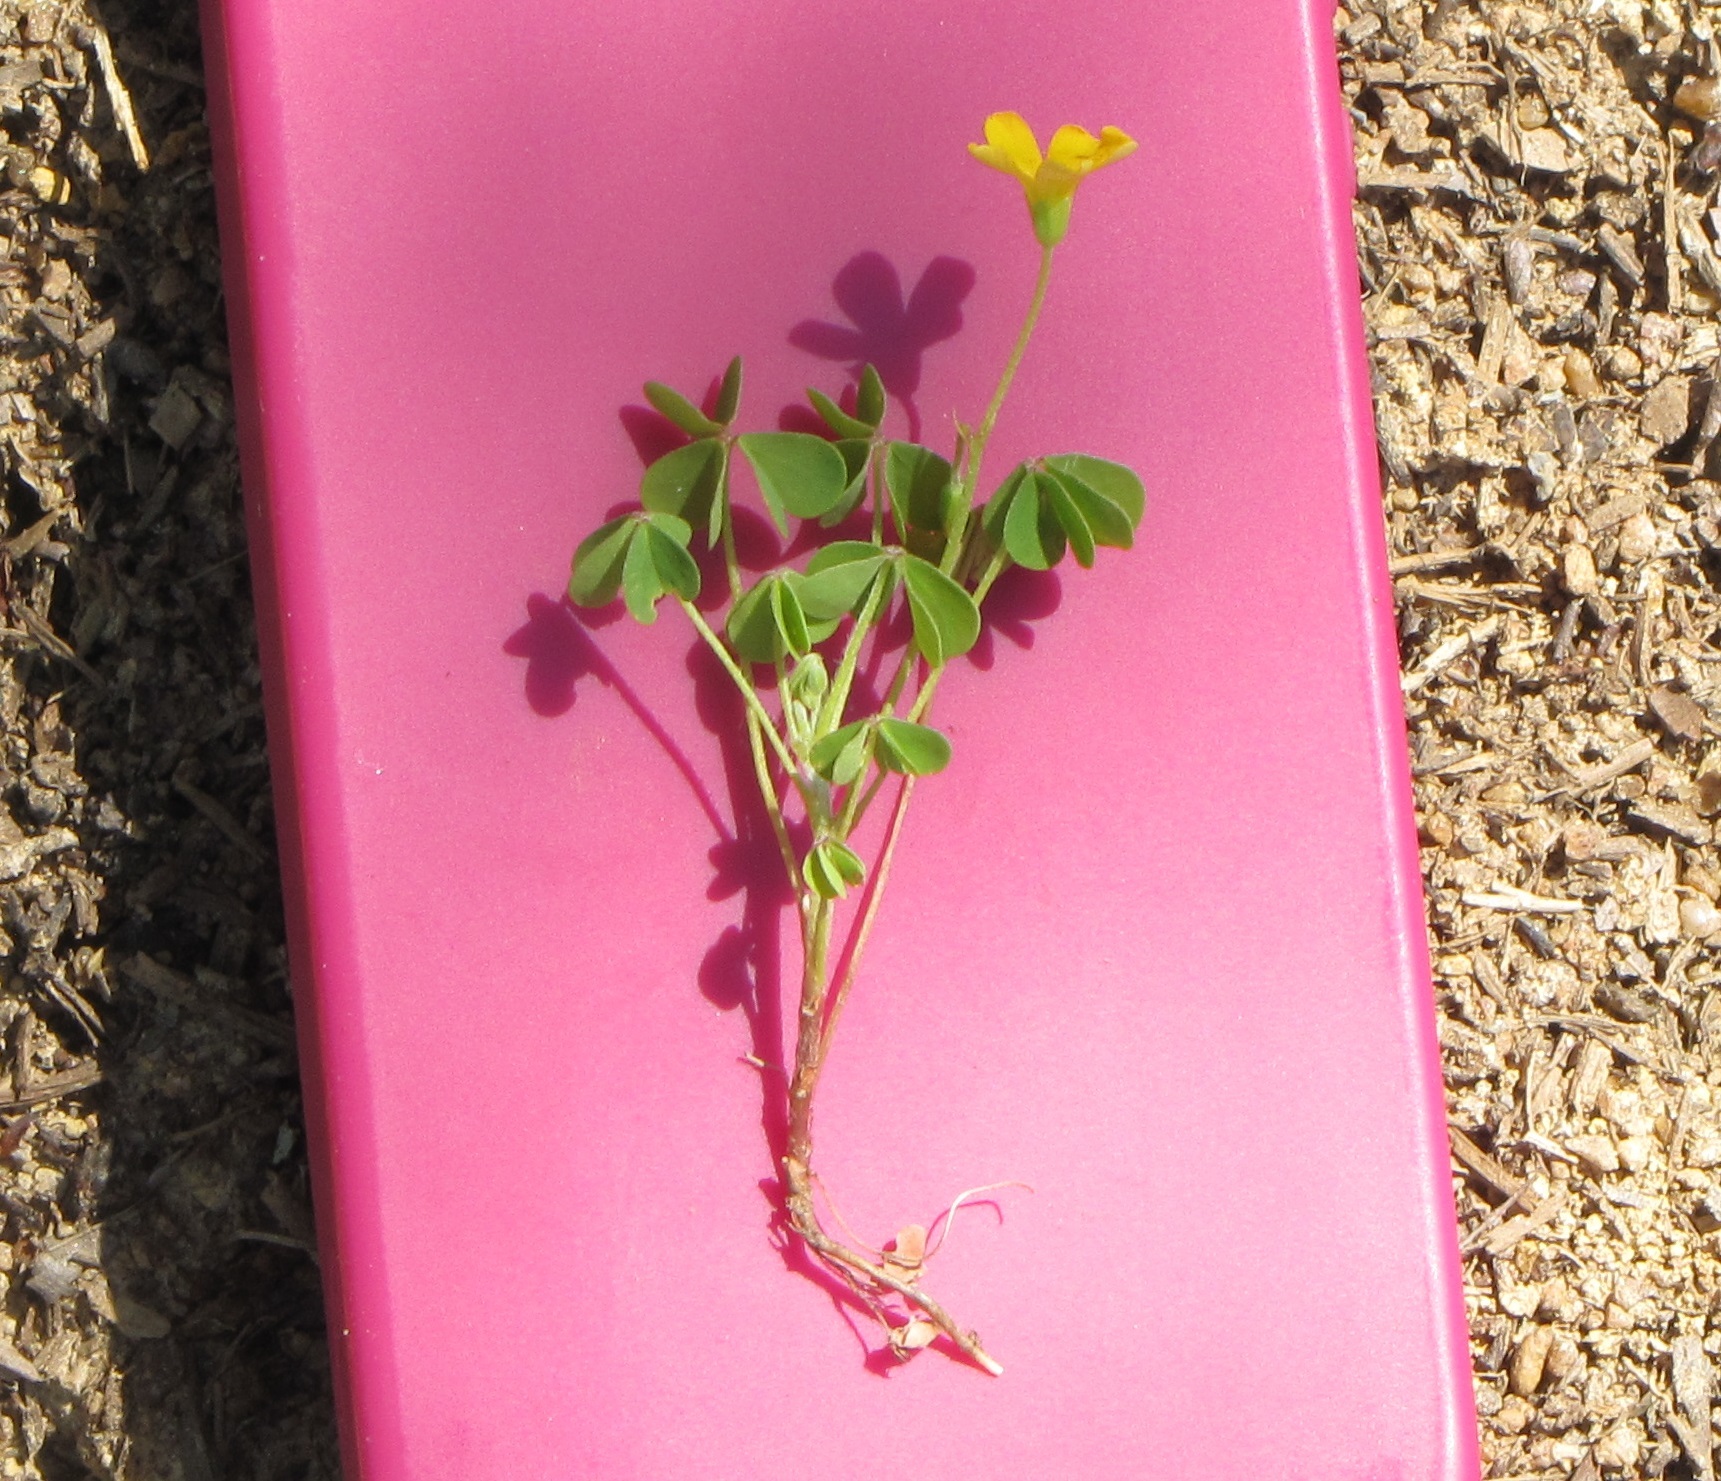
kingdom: Plantae
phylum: Tracheophyta
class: Magnoliopsida
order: Oxalidales
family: Oxalidaceae
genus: Oxalis
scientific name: Oxalis dillenii
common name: Sussex yellow-sorrel
